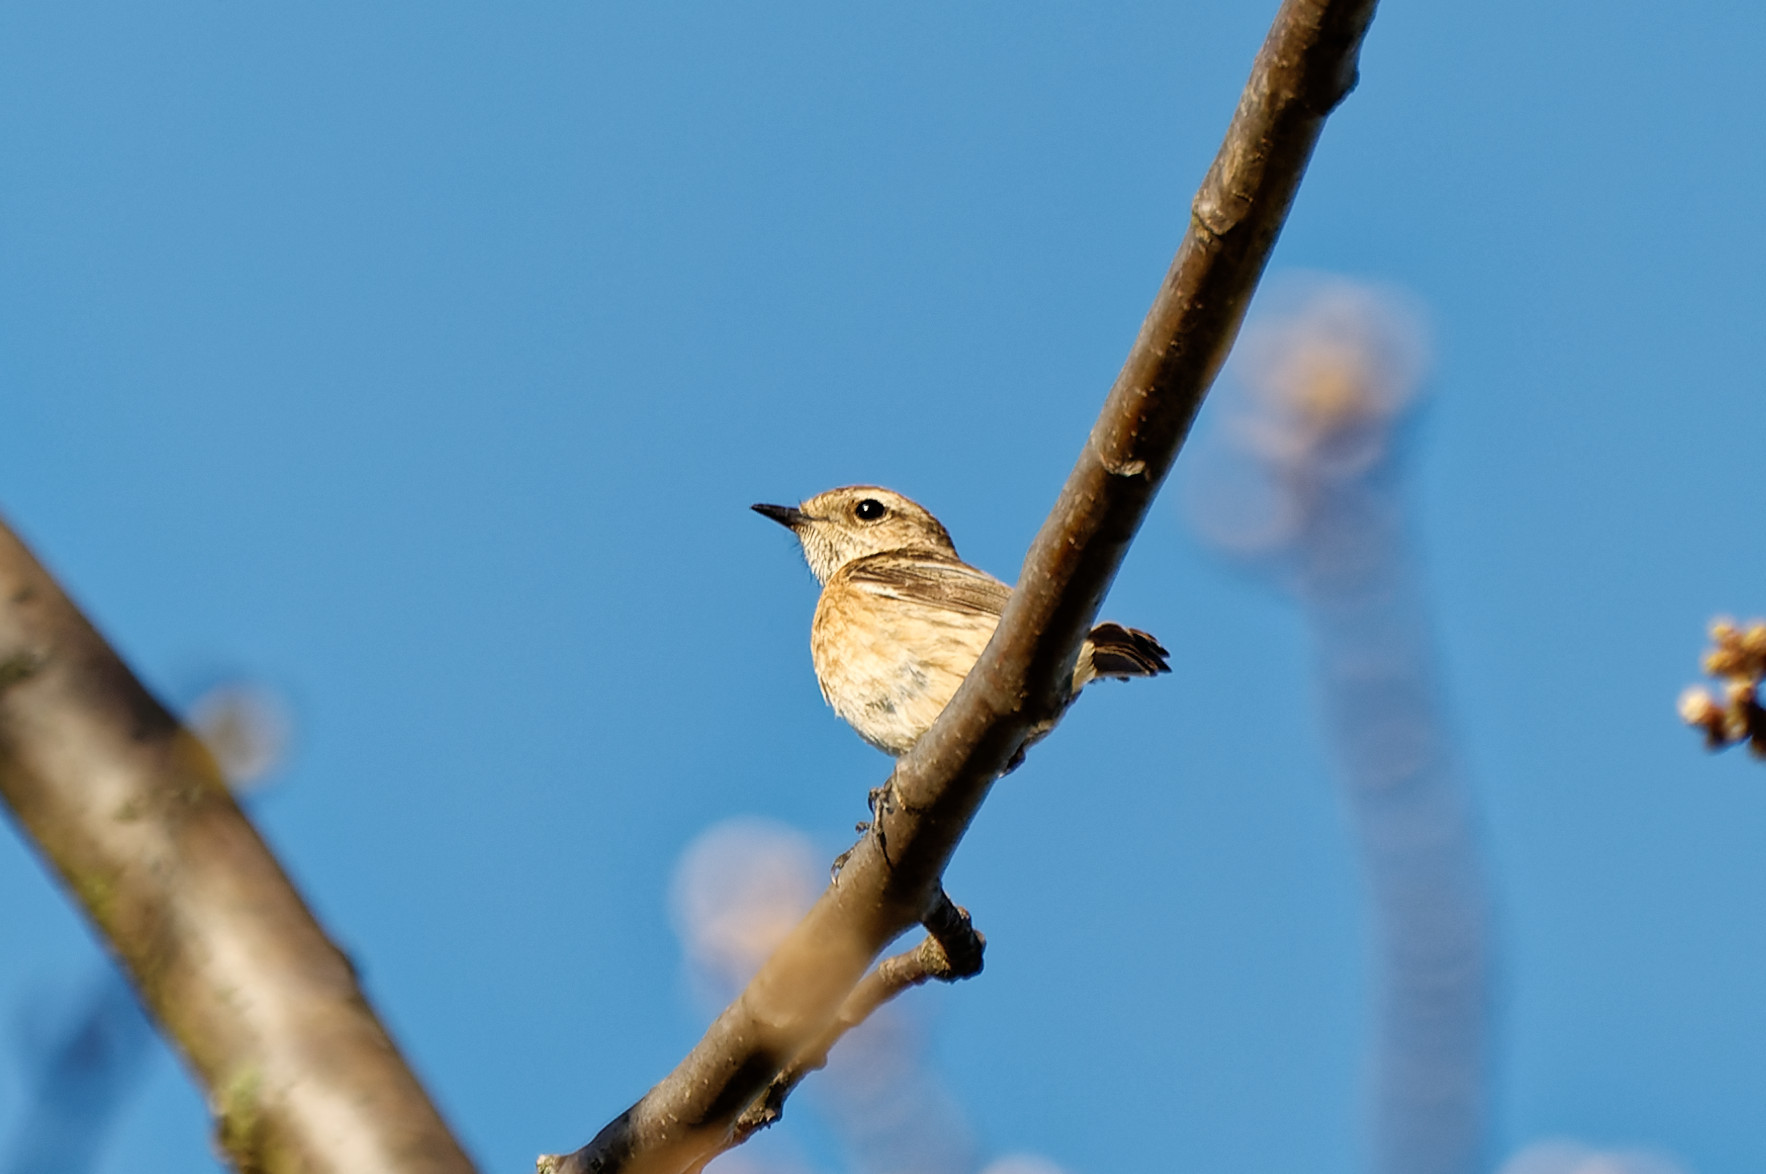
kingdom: Animalia
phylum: Chordata
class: Aves
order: Passeriformes
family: Muscicapidae
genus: Saxicola
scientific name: Saxicola rubicola
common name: European stonechat
